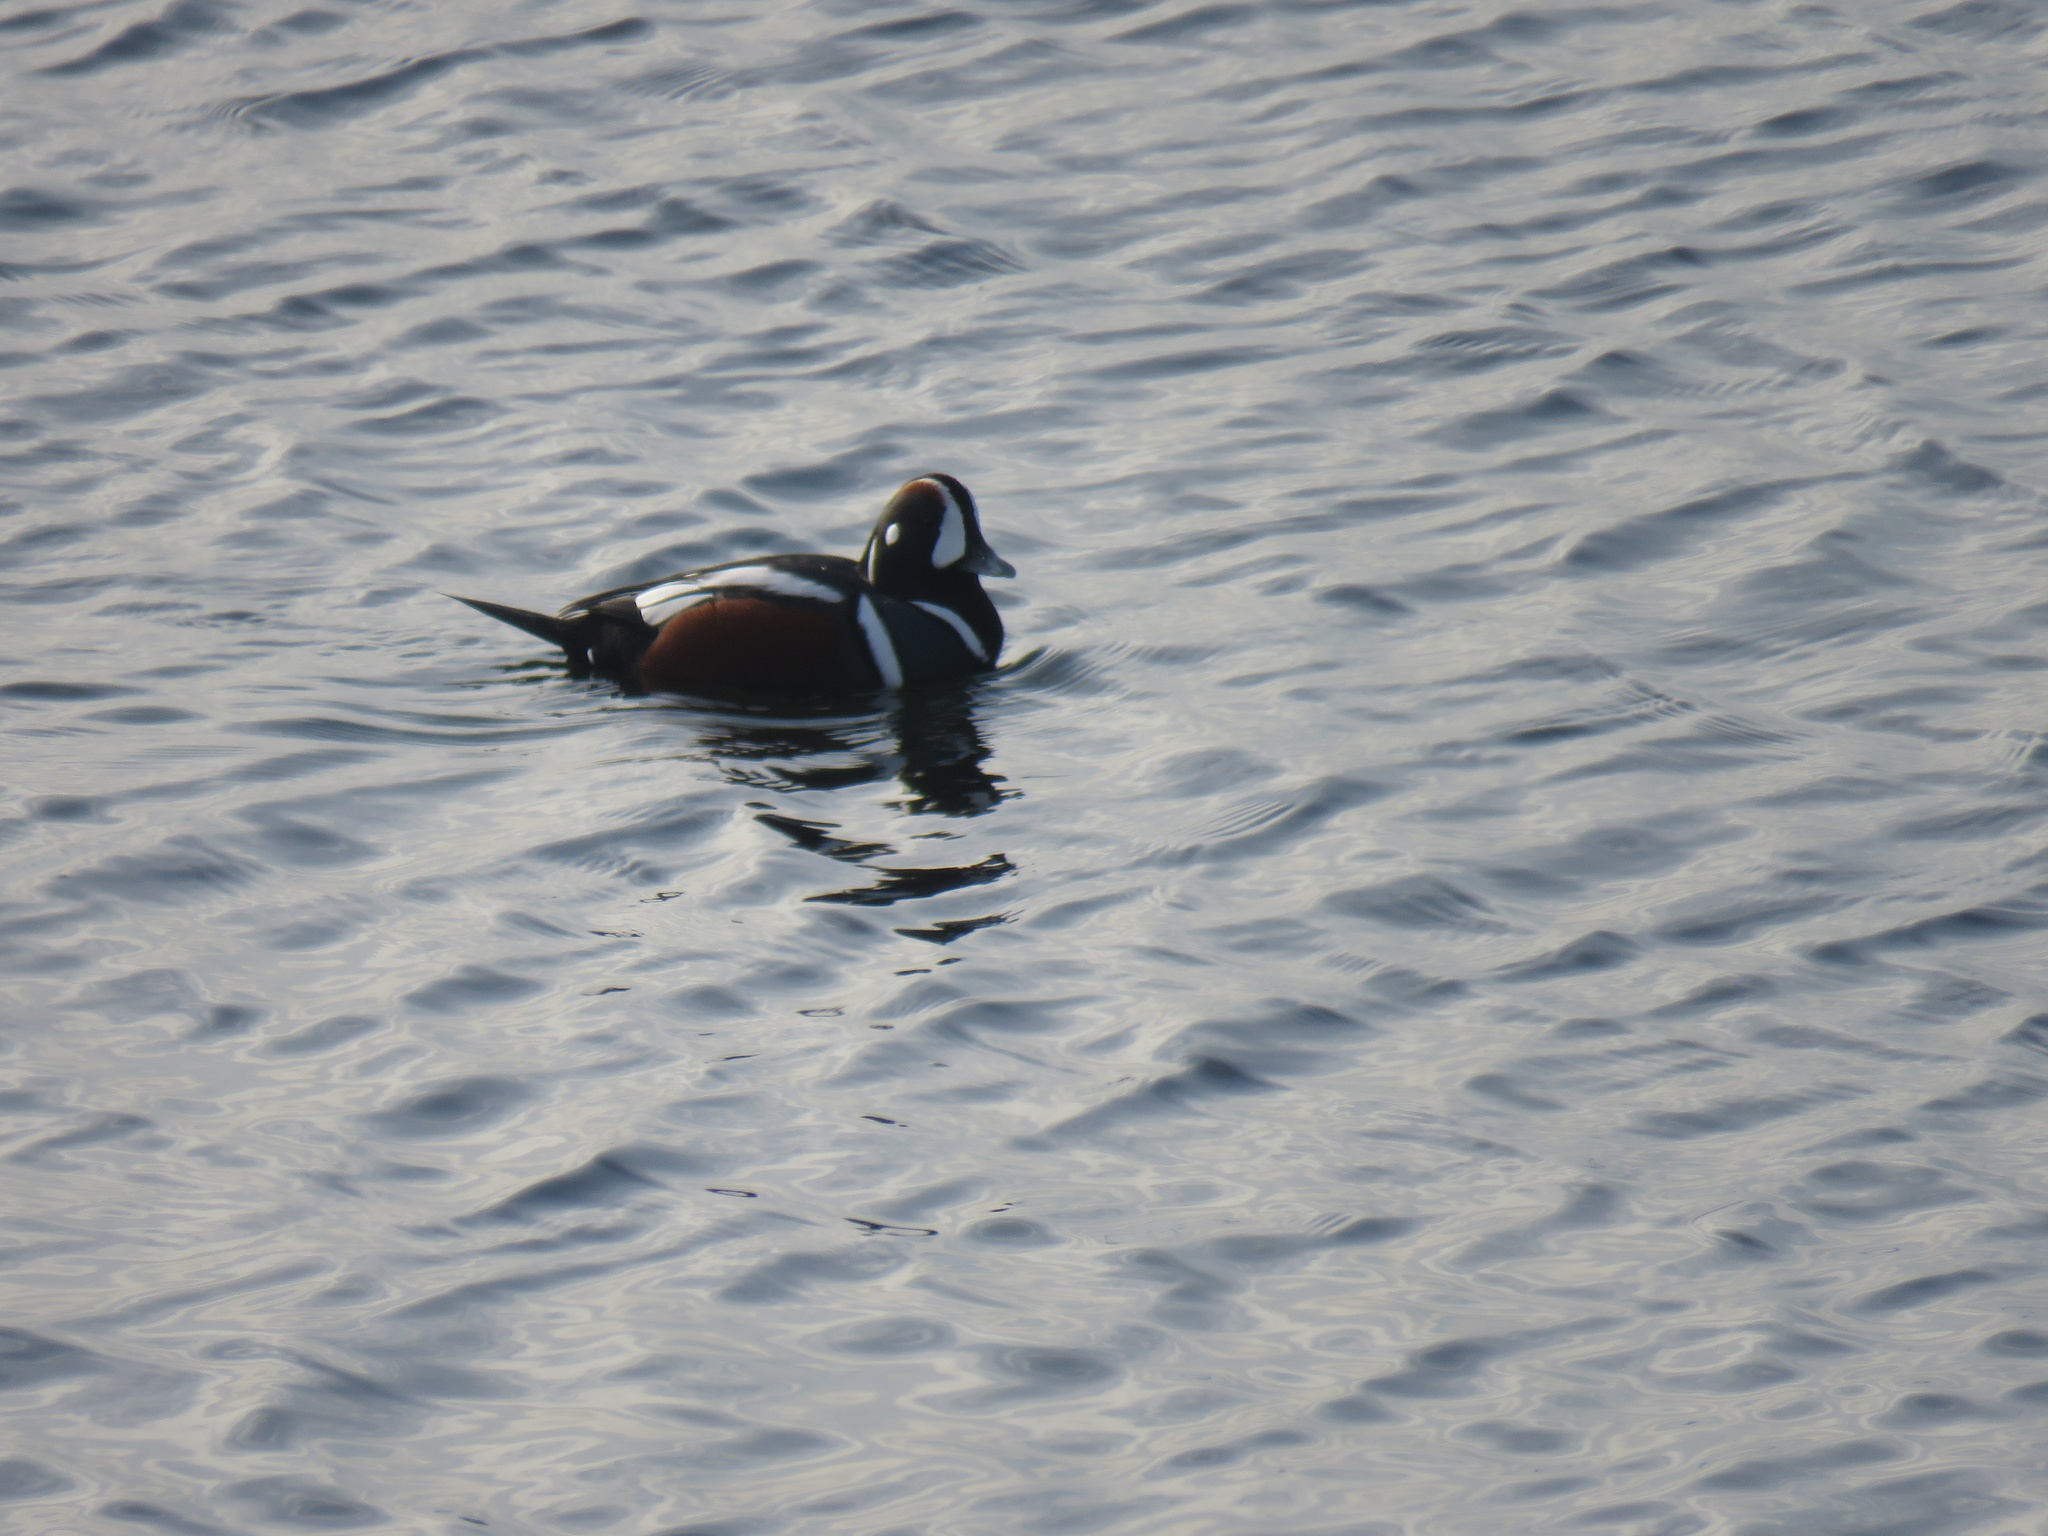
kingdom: Animalia
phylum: Chordata
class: Aves
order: Anseriformes
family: Anatidae
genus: Histrionicus
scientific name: Histrionicus histrionicus
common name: Harlequin duck
